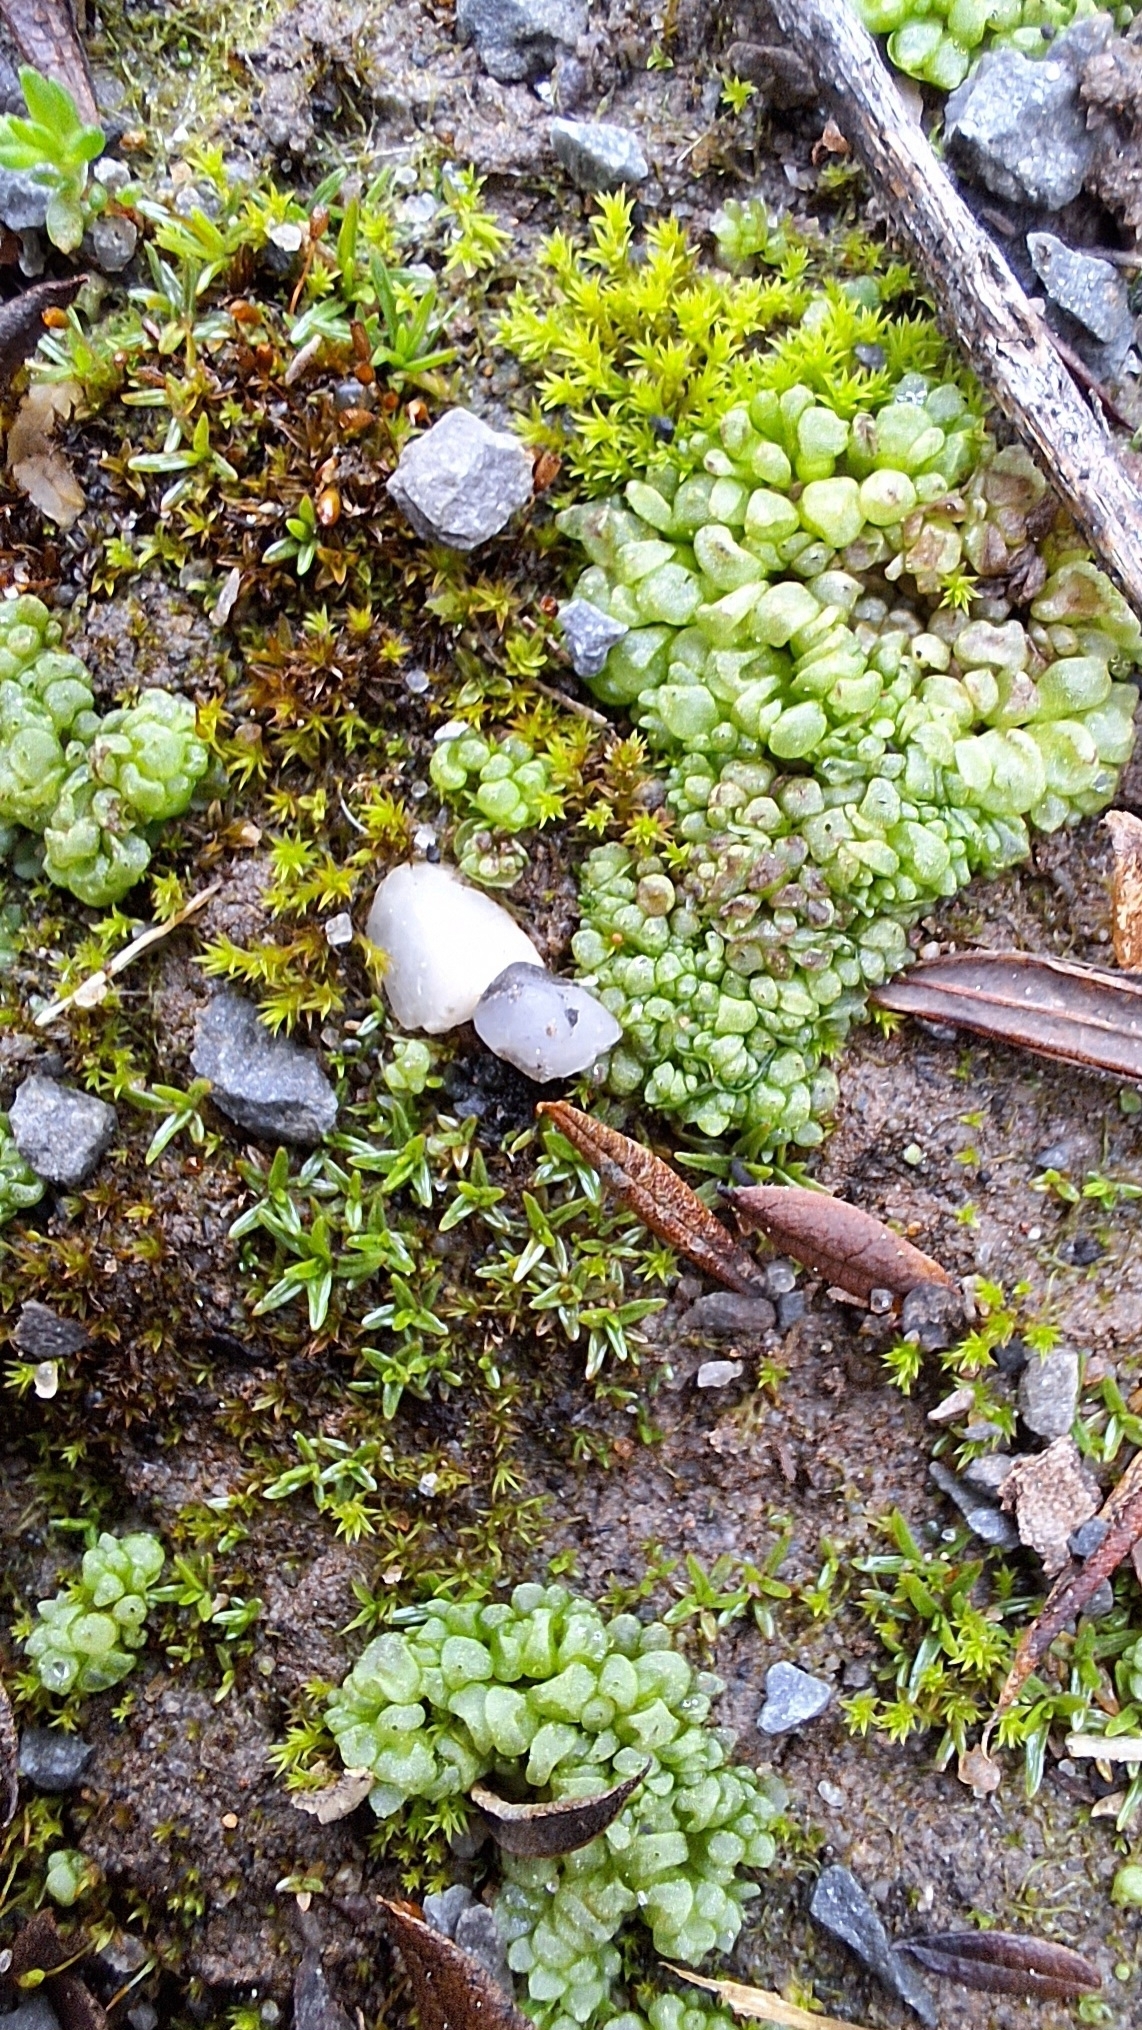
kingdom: Plantae
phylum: Marchantiophyta
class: Marchantiopsida
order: Sphaerocarpales
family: Sphaerocarpaceae
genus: Sphaerocarpos
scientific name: Sphaerocarpos texanus
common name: Texas balloonwort
